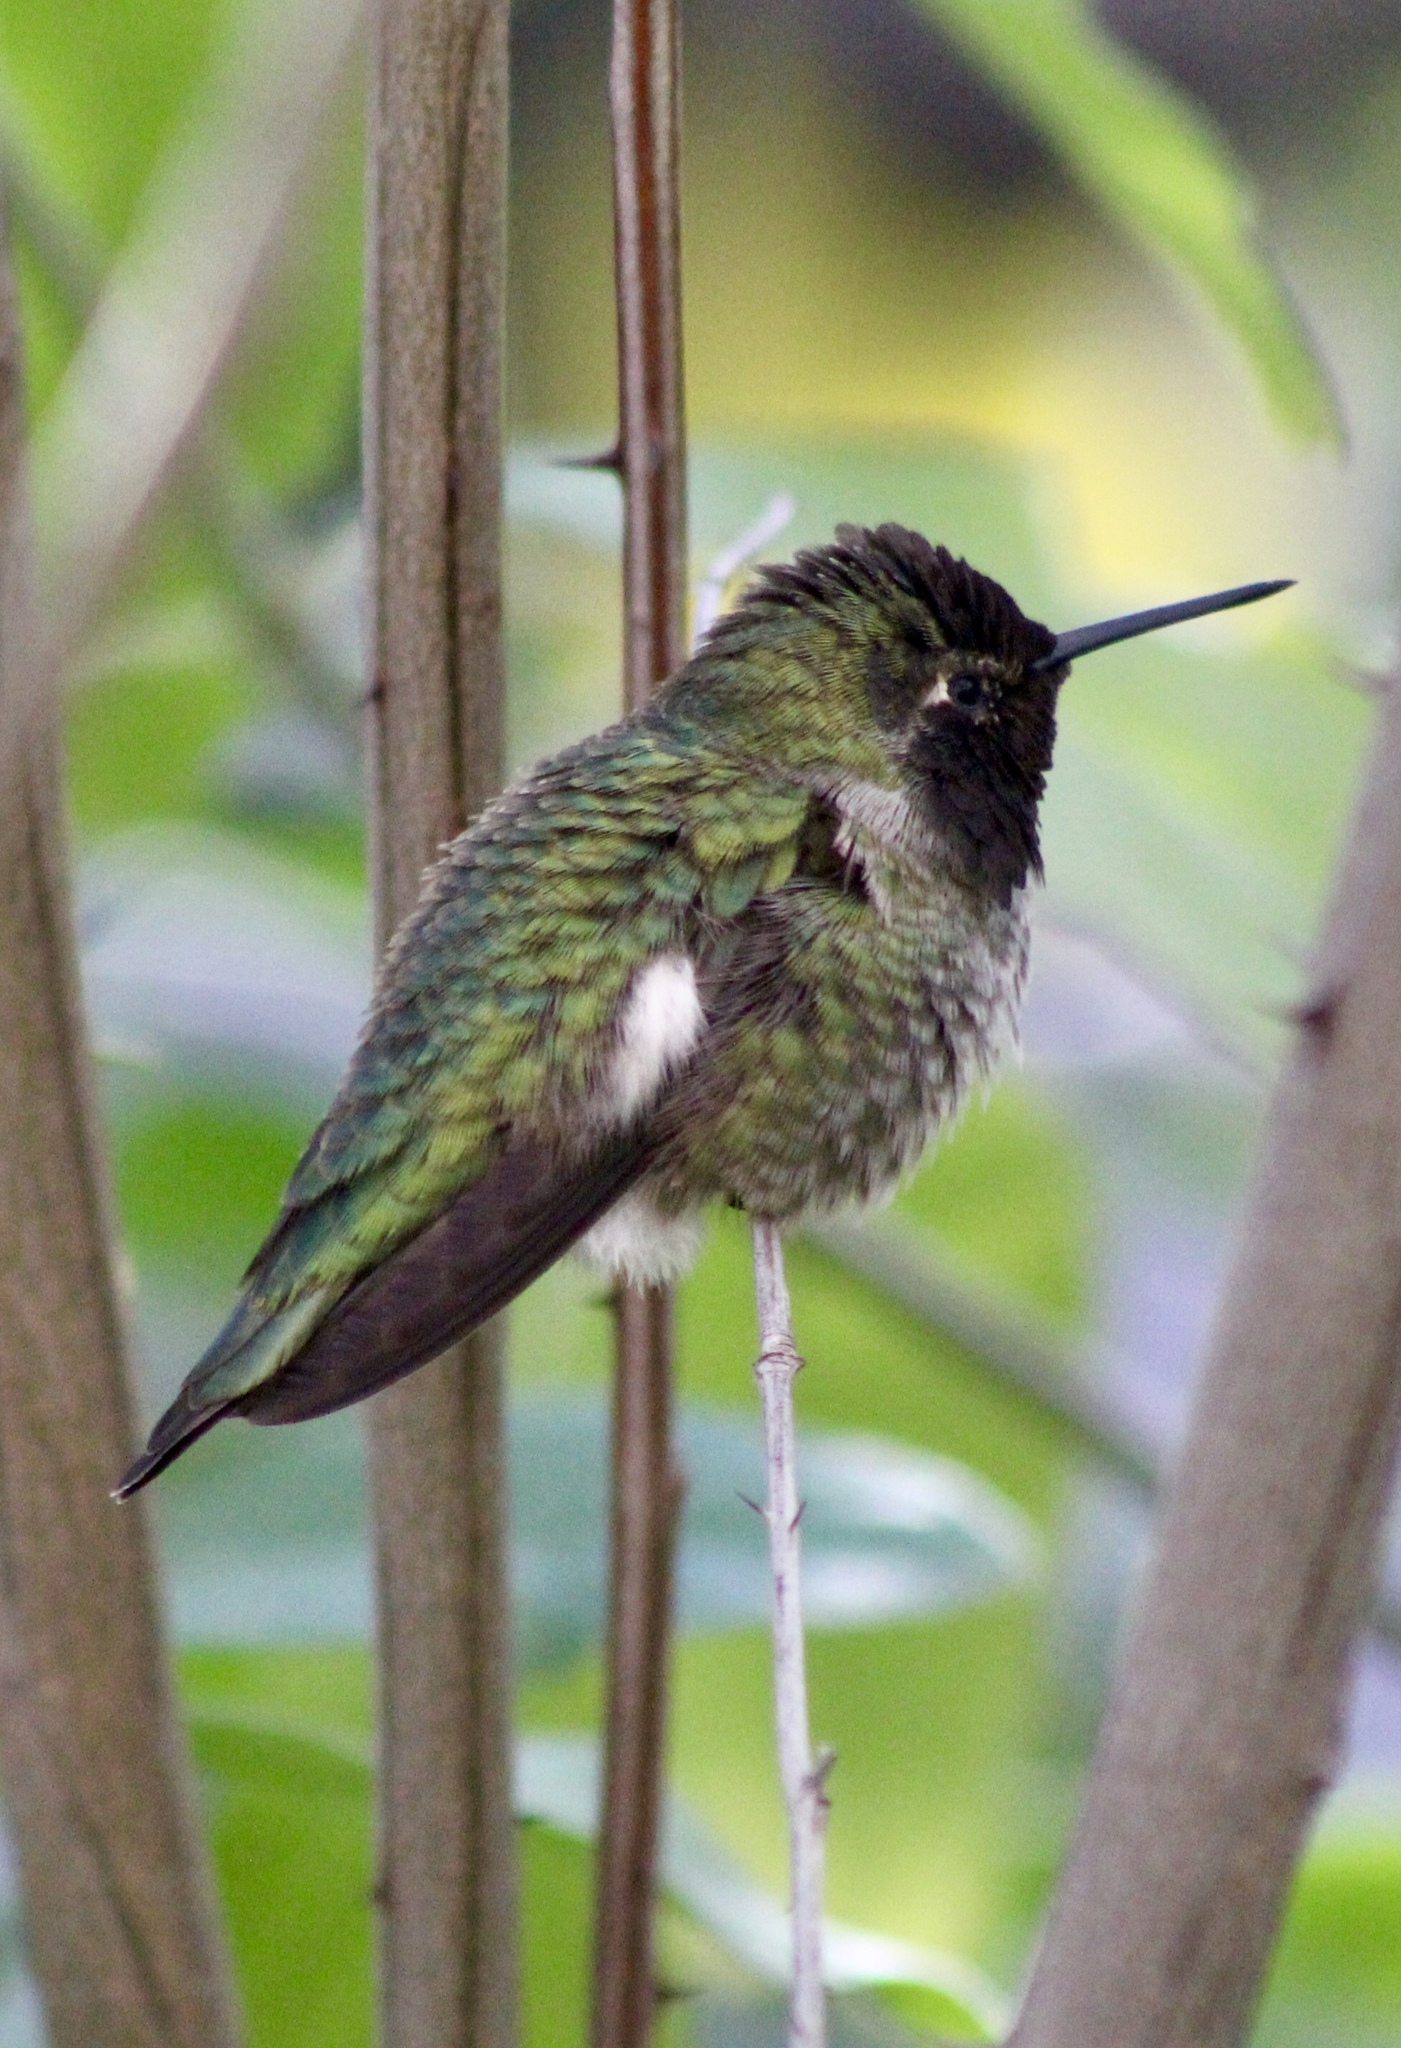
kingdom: Animalia
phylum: Chordata
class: Aves
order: Apodiformes
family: Trochilidae
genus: Calypte
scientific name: Calypte anna
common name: Anna's hummingbird
